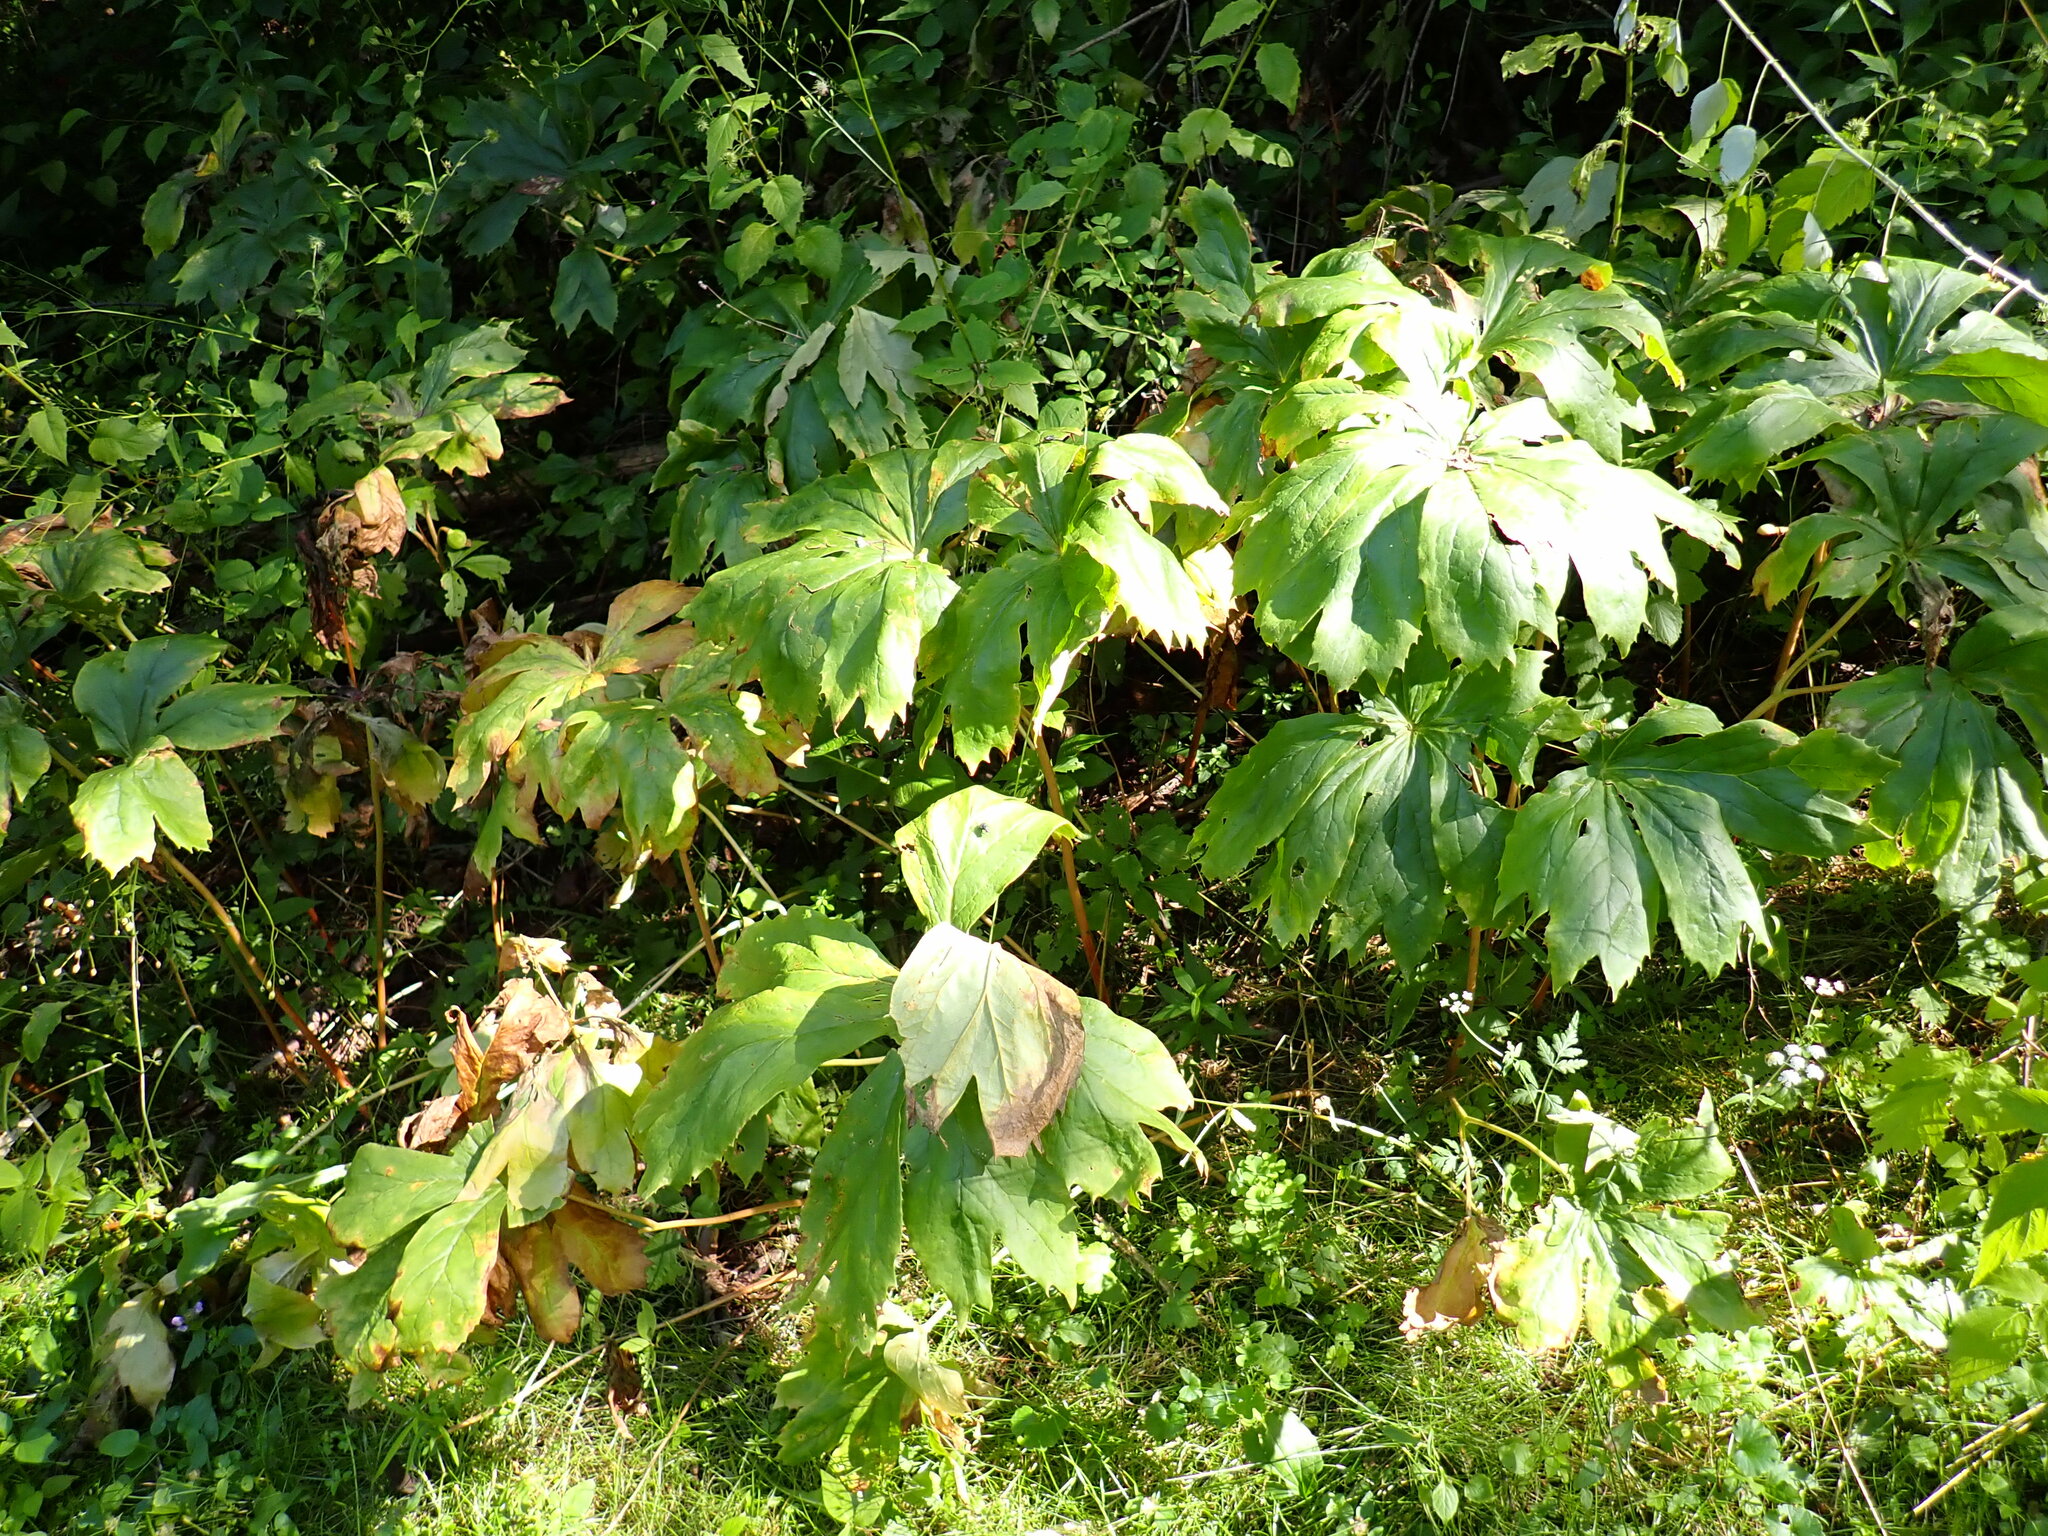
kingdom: Plantae
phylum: Tracheophyta
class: Magnoliopsida
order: Ranunculales
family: Berberidaceae
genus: Podophyllum
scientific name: Podophyllum peltatum
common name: Wild mandrake
